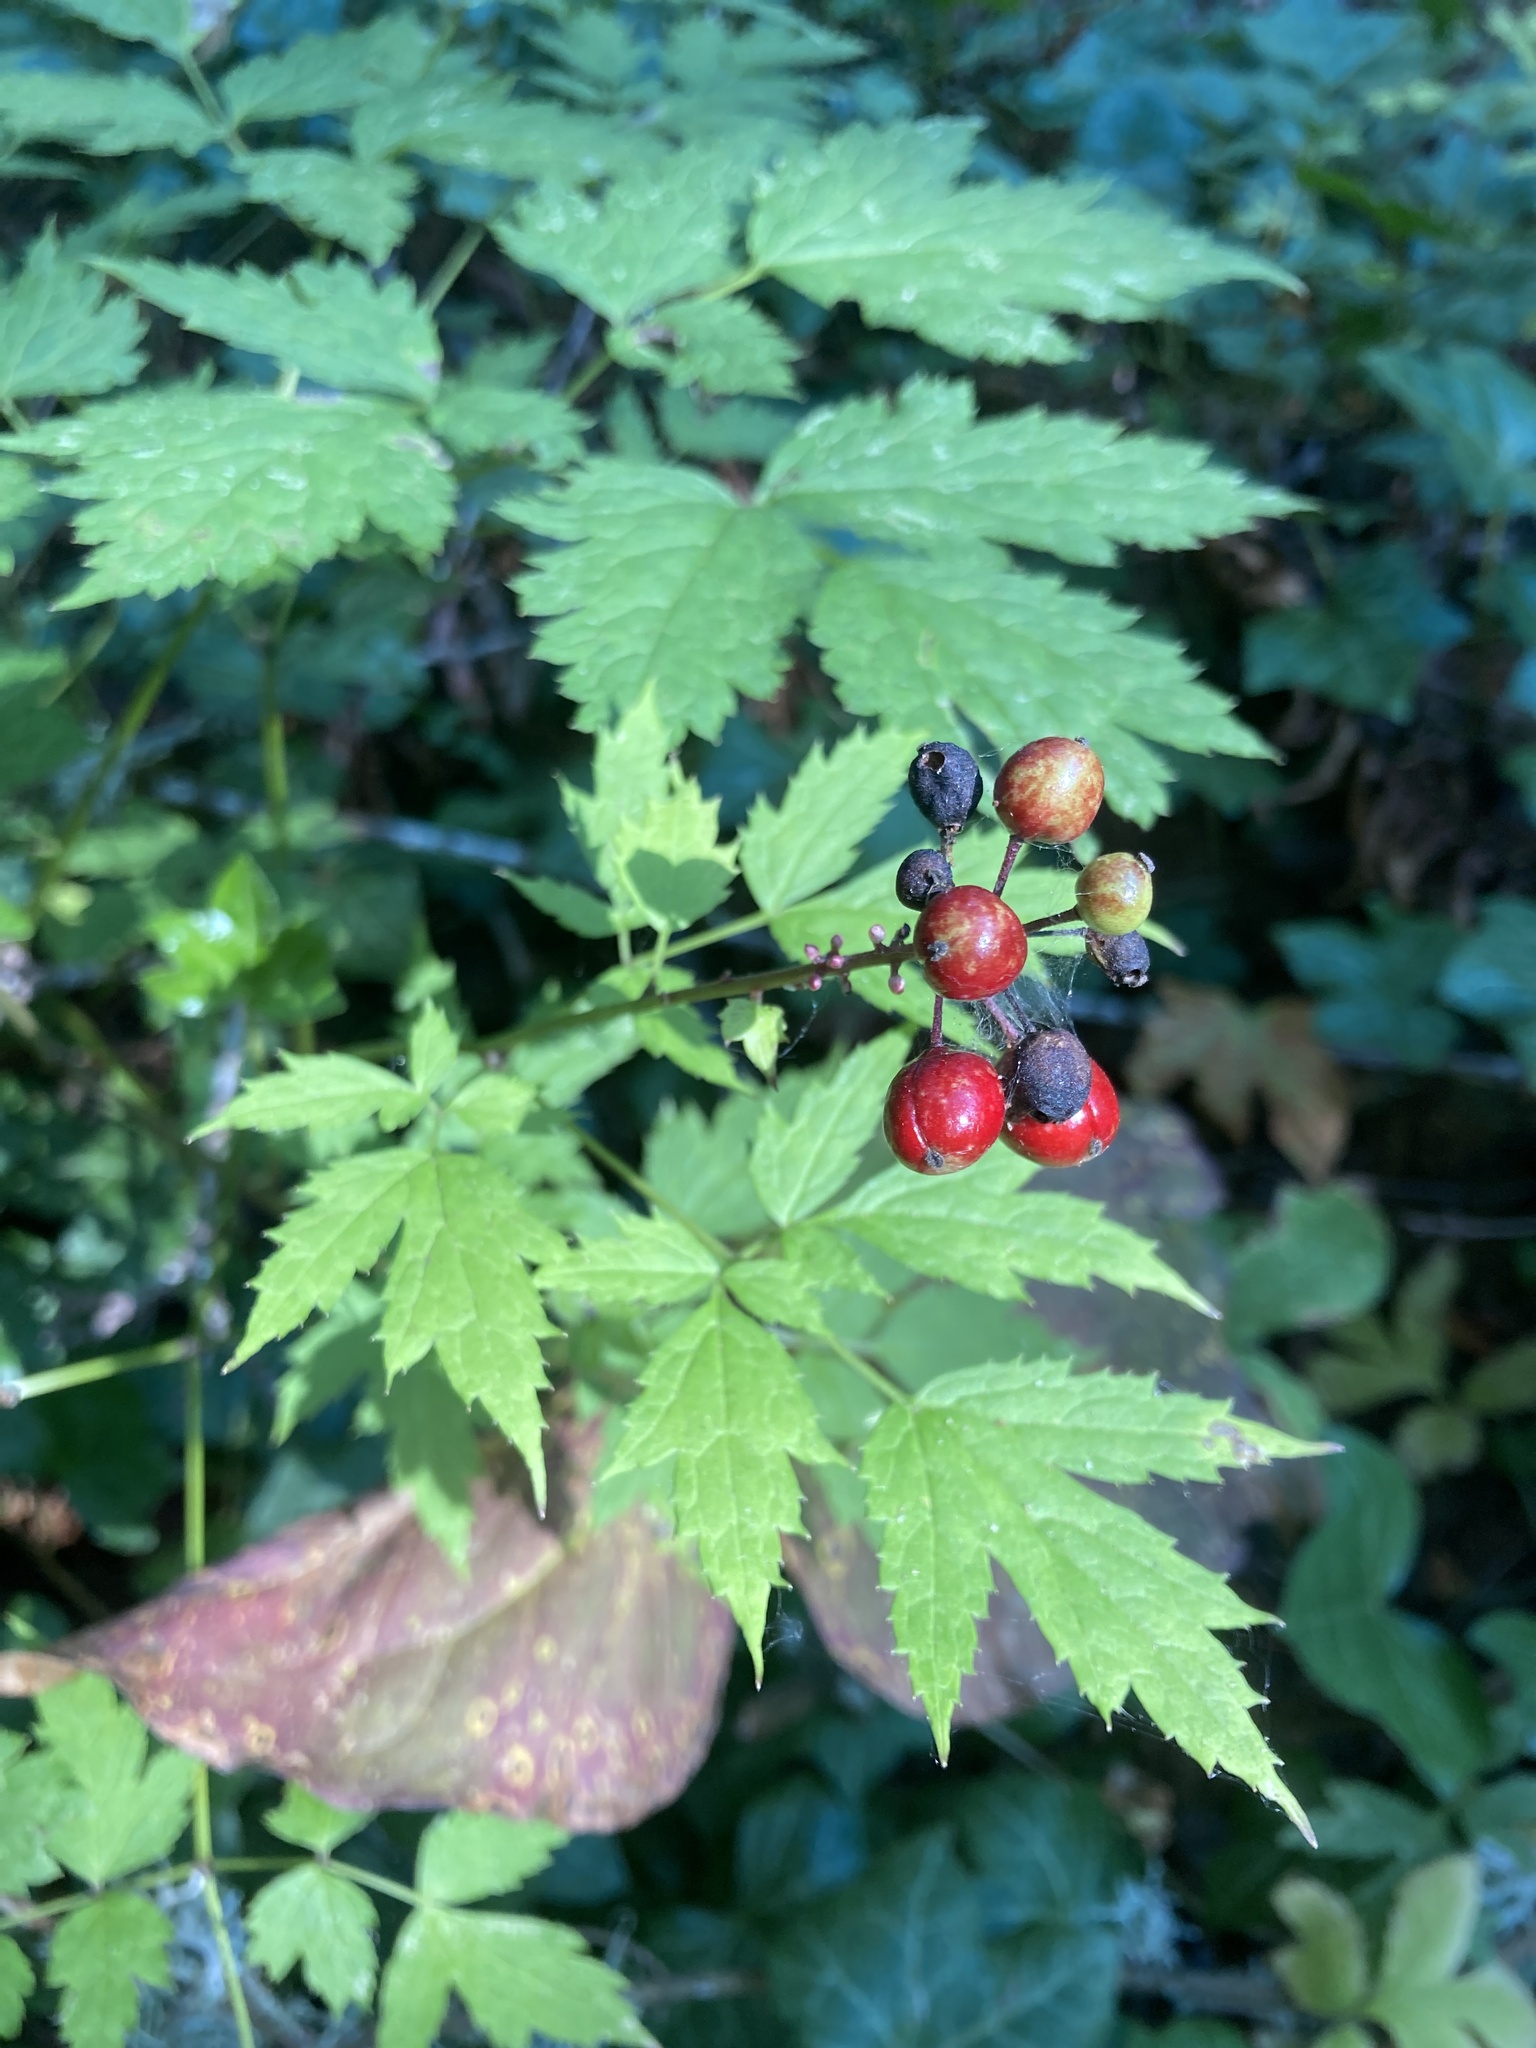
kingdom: Plantae
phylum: Tracheophyta
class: Magnoliopsida
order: Ranunculales
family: Ranunculaceae
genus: Actaea
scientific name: Actaea rubra
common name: Red baneberry
